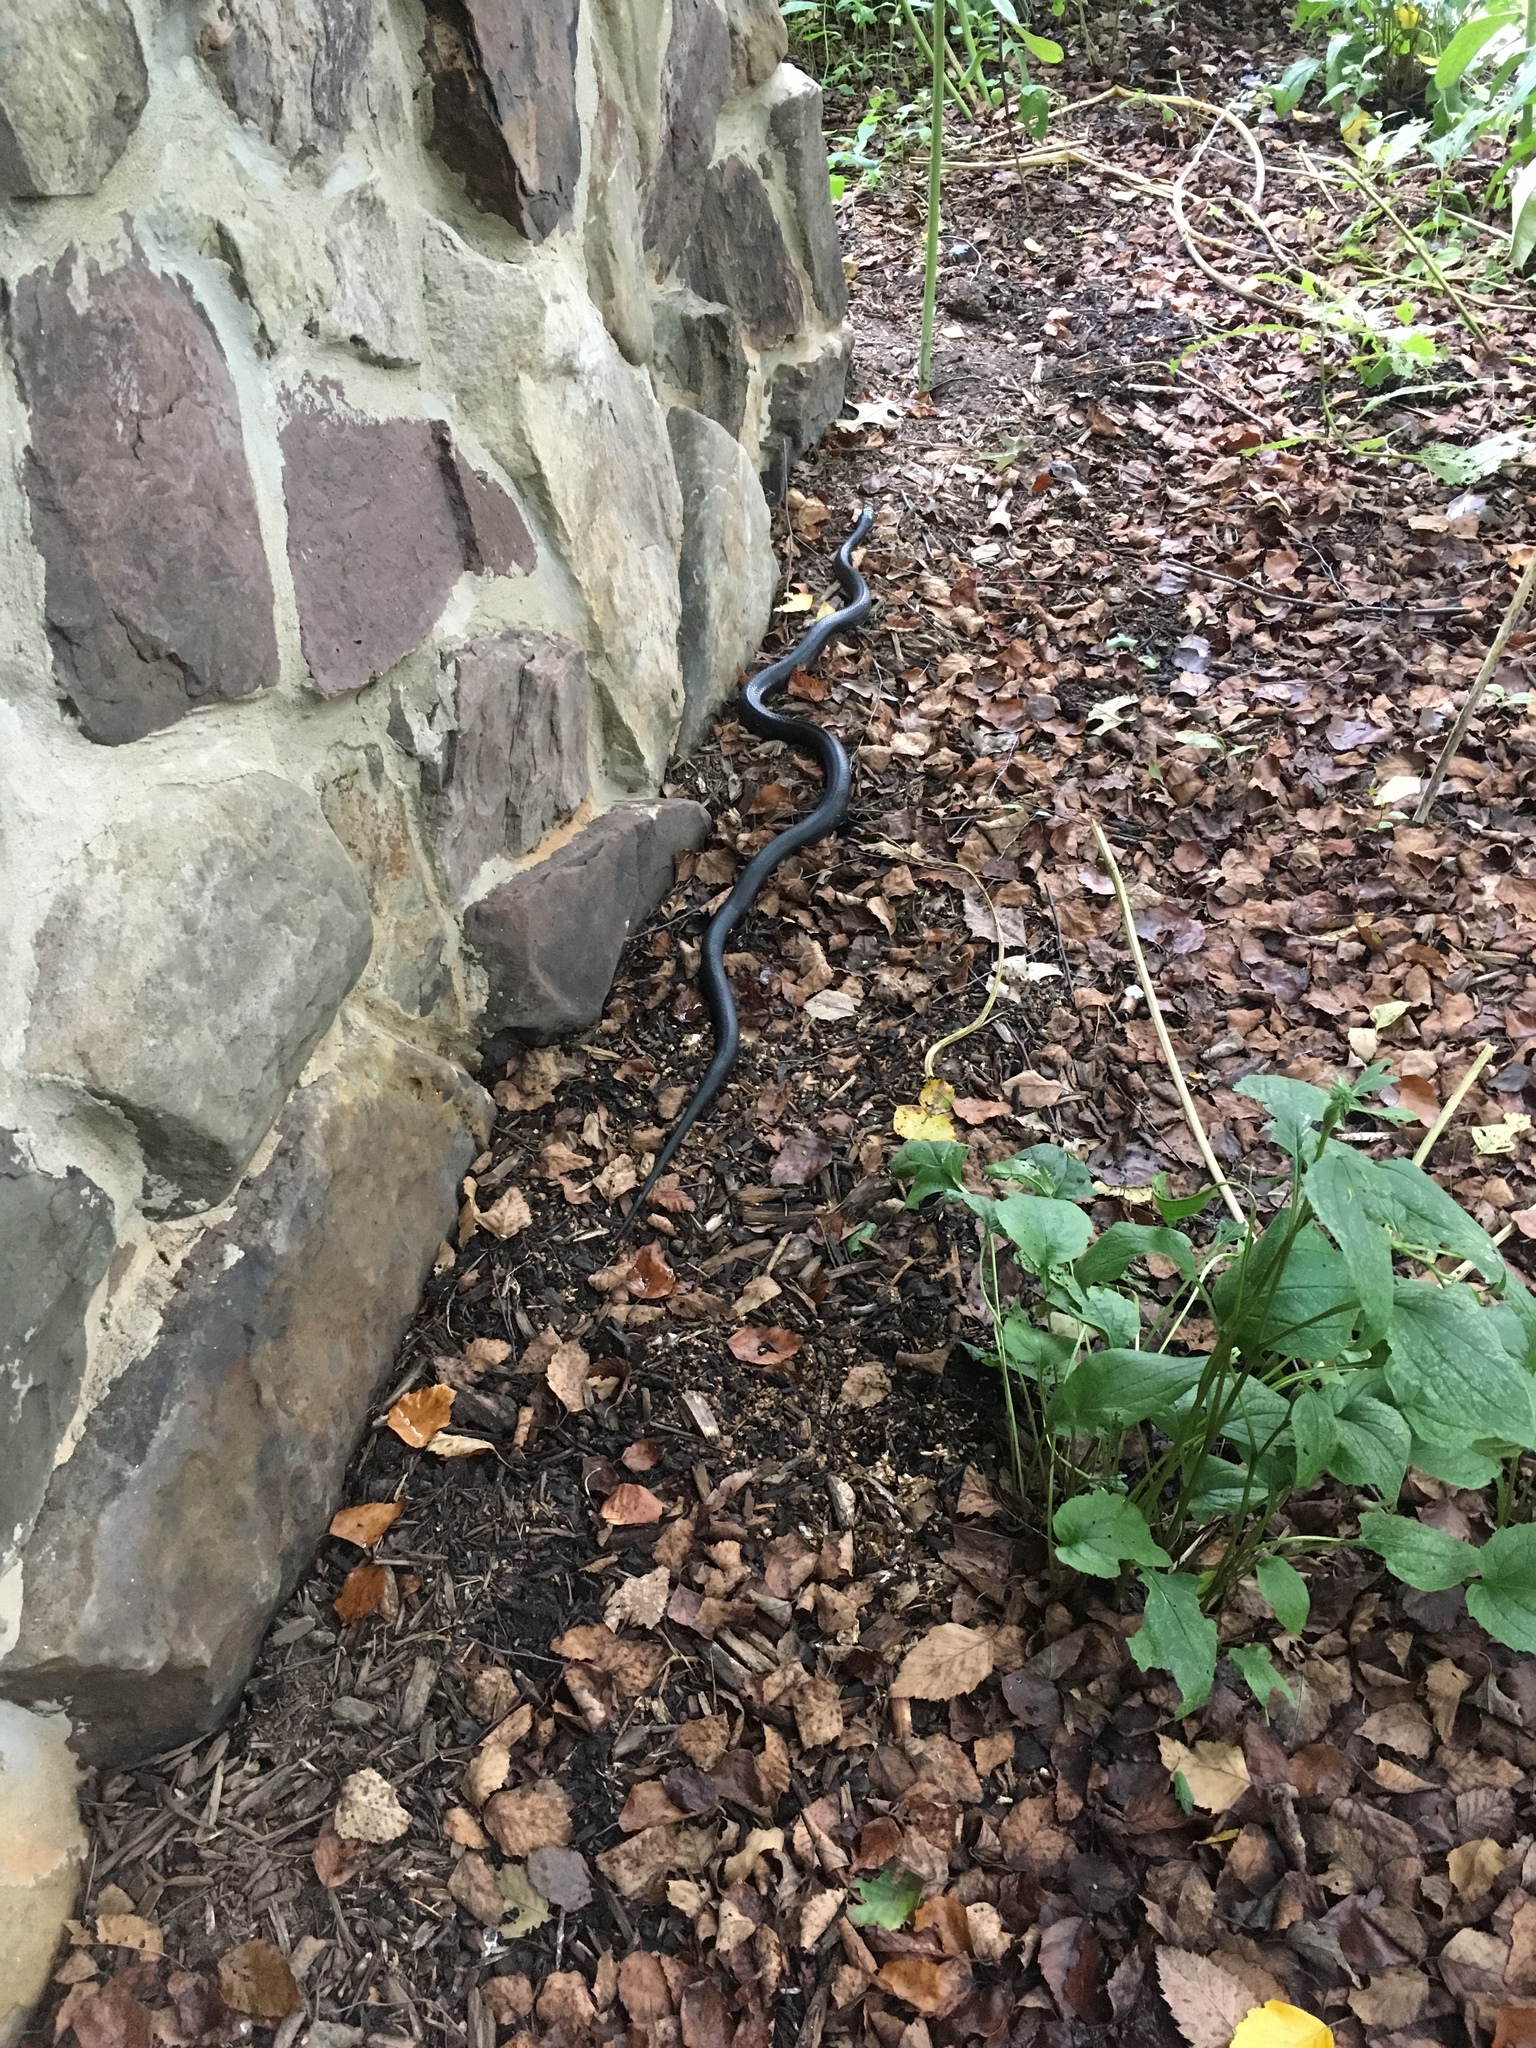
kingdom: Animalia
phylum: Chordata
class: Squamata
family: Colubridae
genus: Pantherophis
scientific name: Pantherophis alleghaniensis
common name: Eastern rat snake
